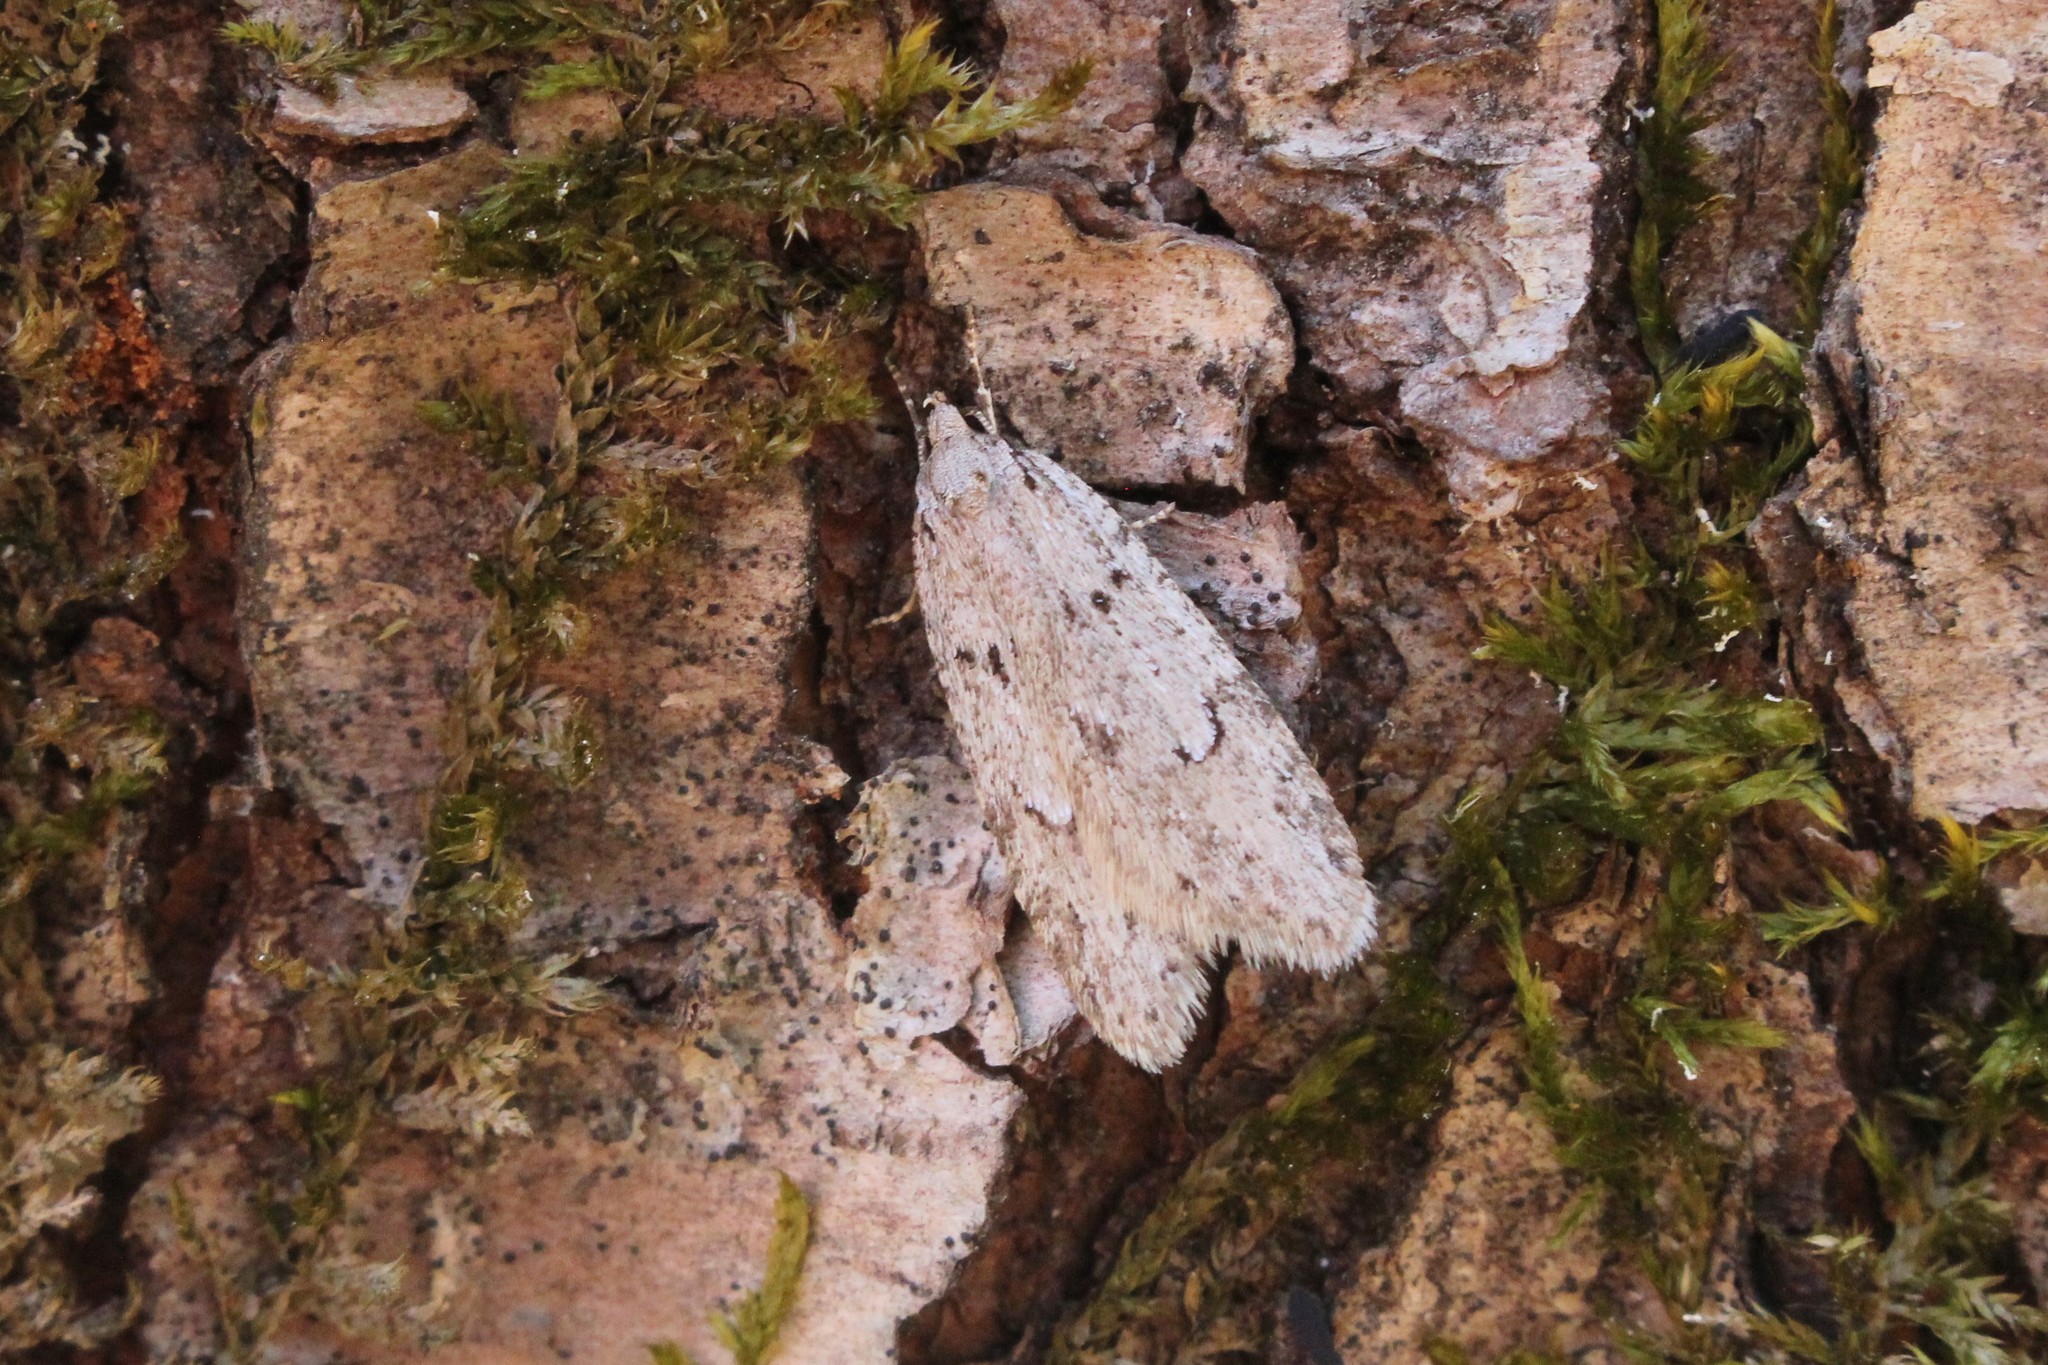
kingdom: Animalia
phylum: Arthropoda
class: Insecta
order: Lepidoptera
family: Depressariidae
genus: Semioscopis
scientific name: Semioscopis megamicrella
